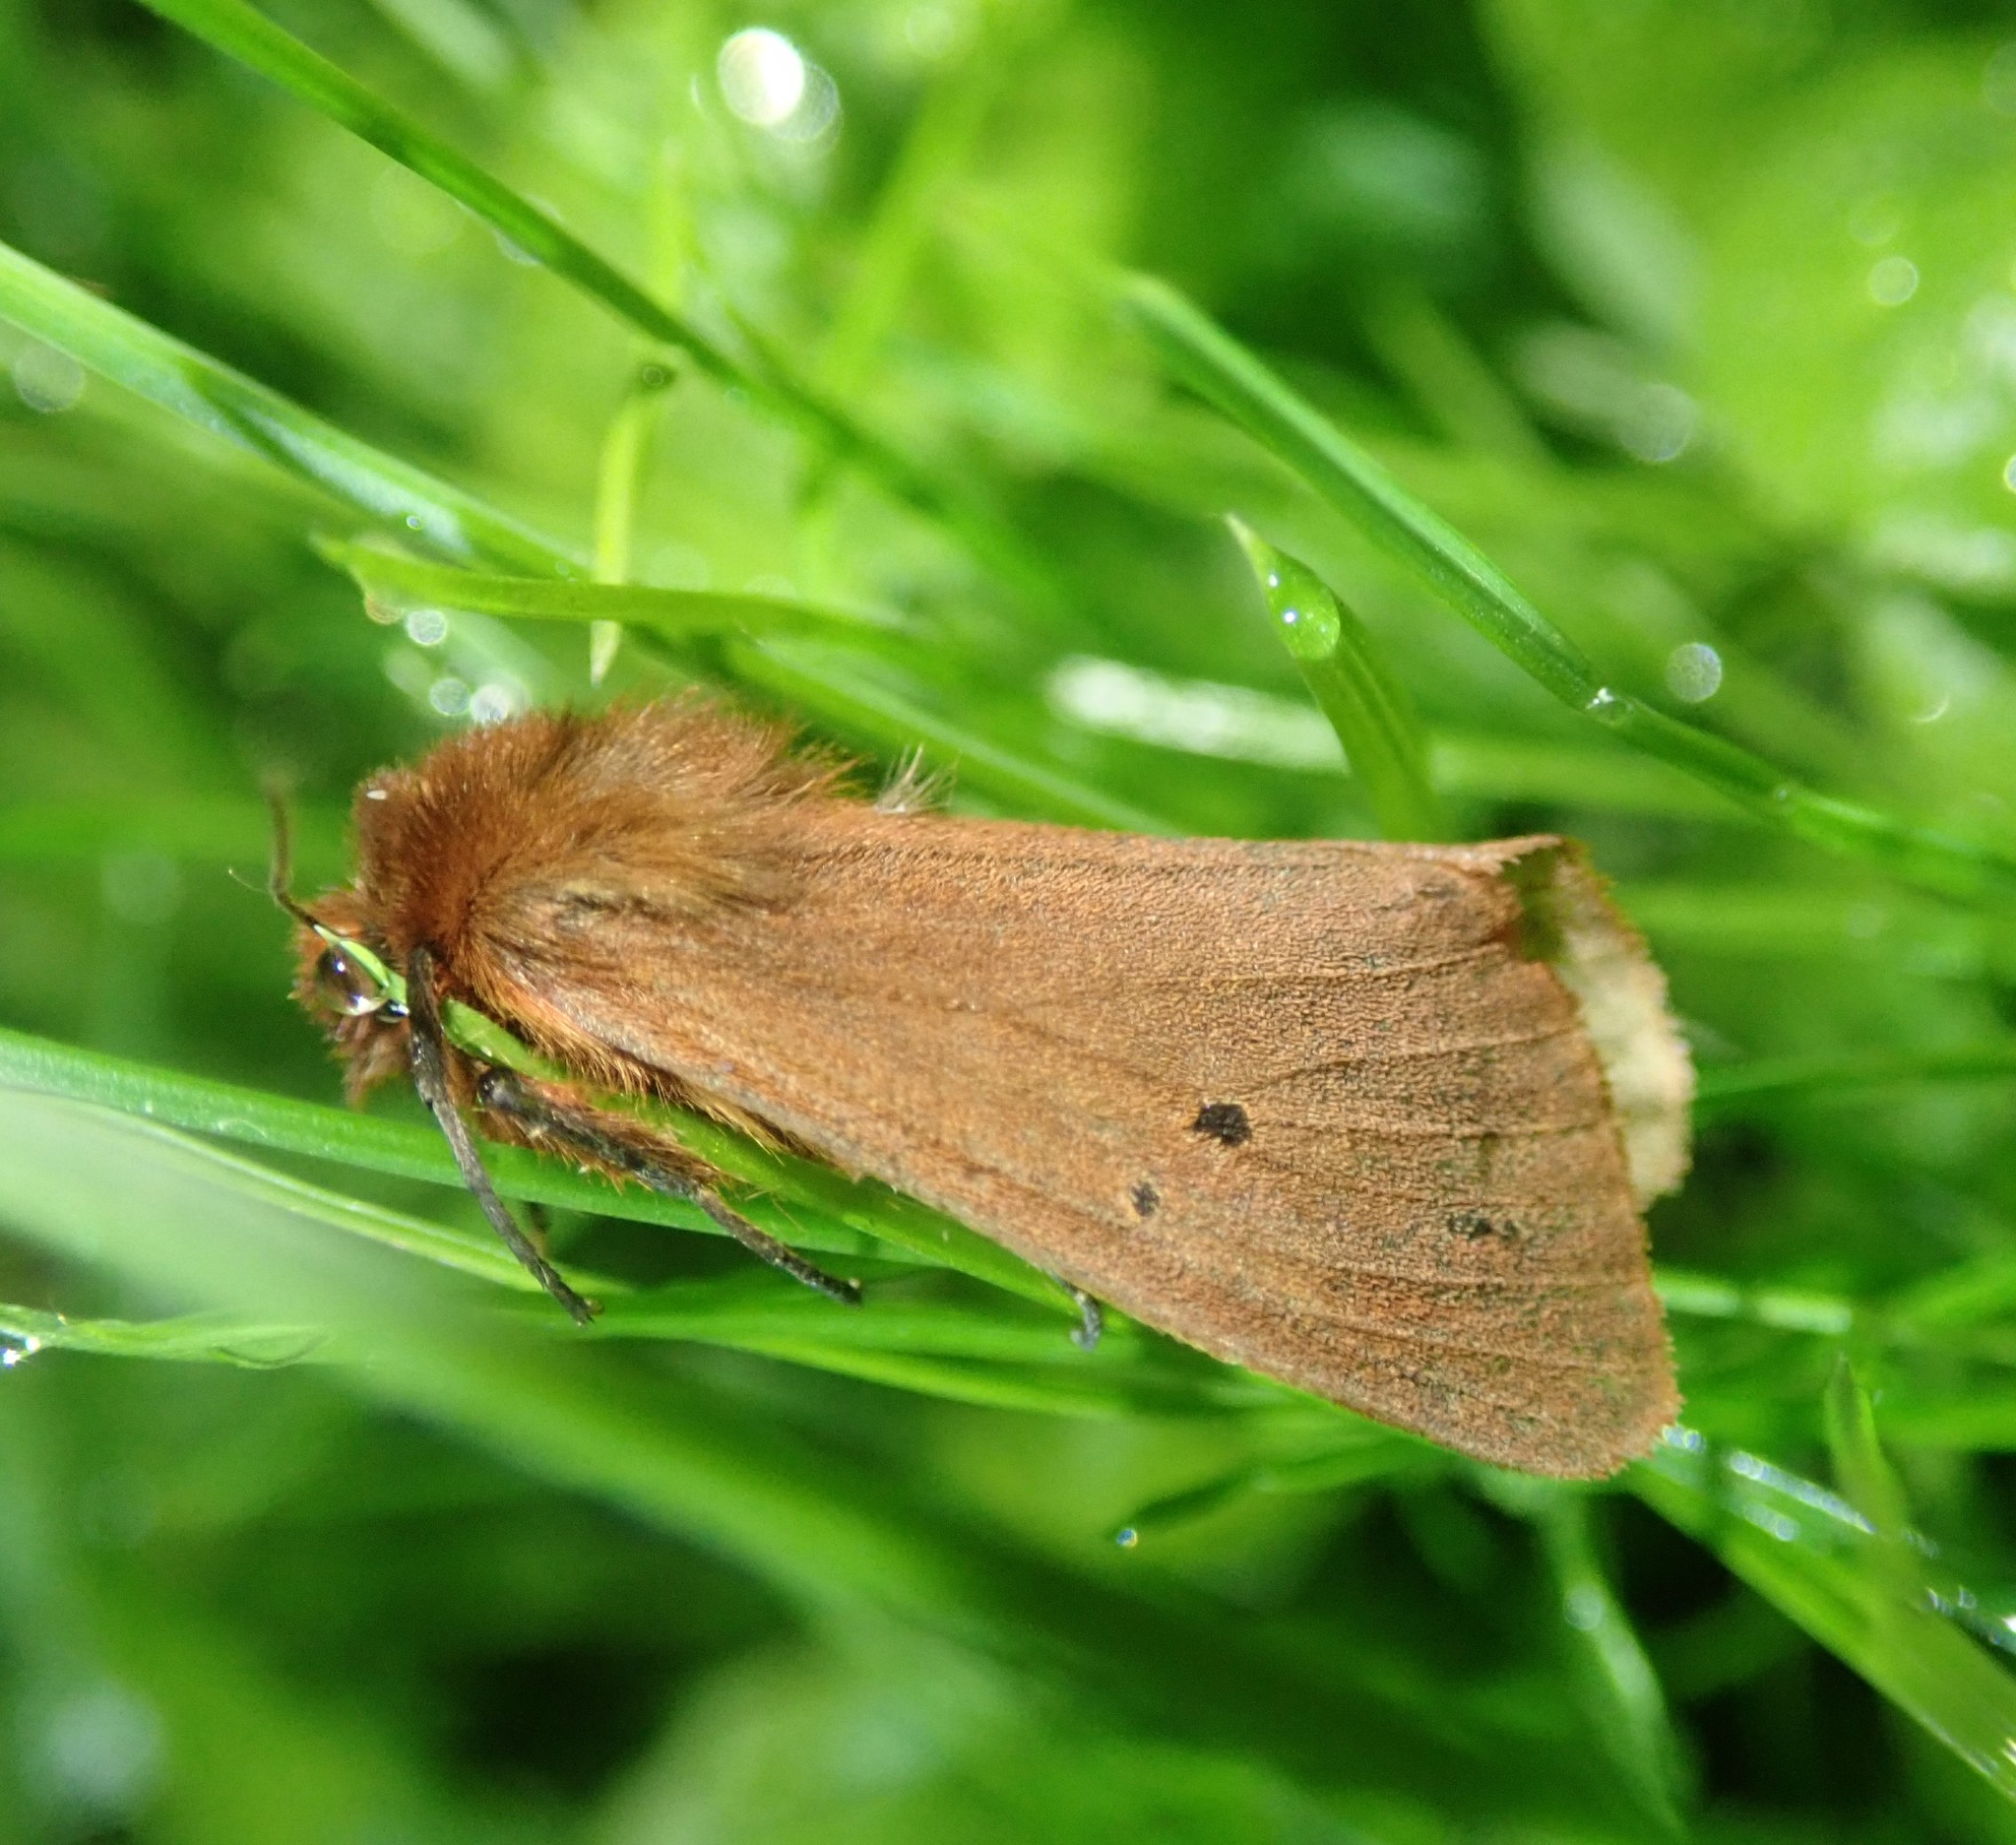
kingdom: Animalia
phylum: Arthropoda
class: Insecta
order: Lepidoptera
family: Erebidae
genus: Phragmatobia
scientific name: Phragmatobia fuliginosa
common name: Ruby tiger
